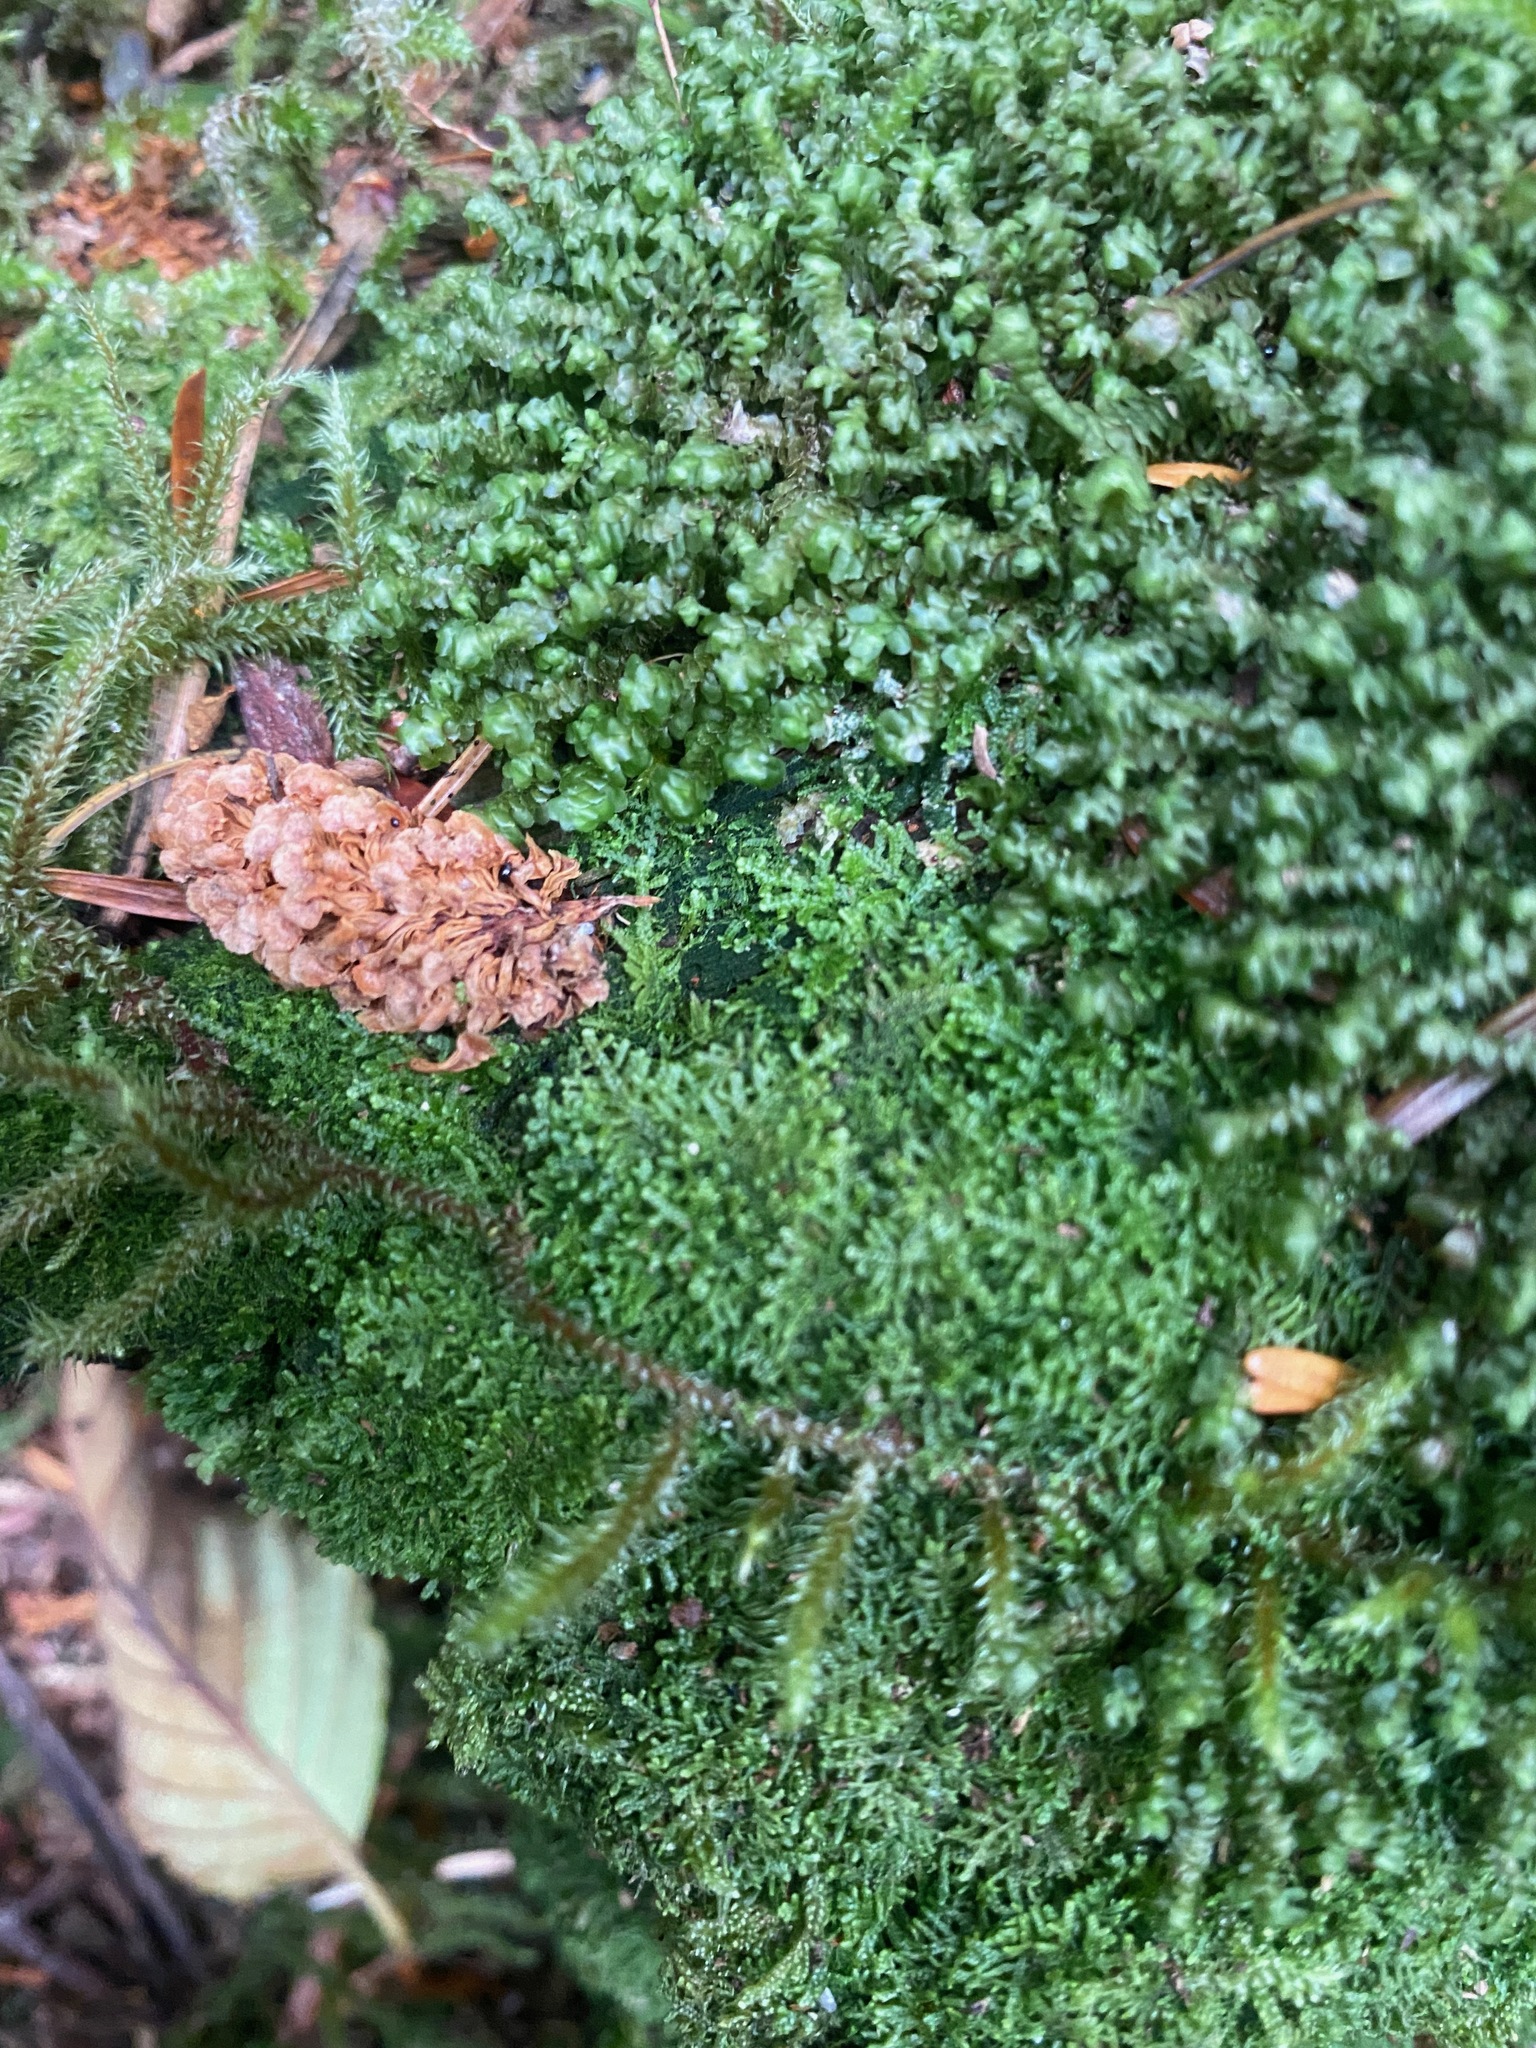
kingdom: Plantae
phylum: Marchantiophyta
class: Jungermanniopsida
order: Jungermanniales
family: Lepidoziaceae
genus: Lepidozia
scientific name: Lepidozia reptans
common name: Creeping fingerwort
